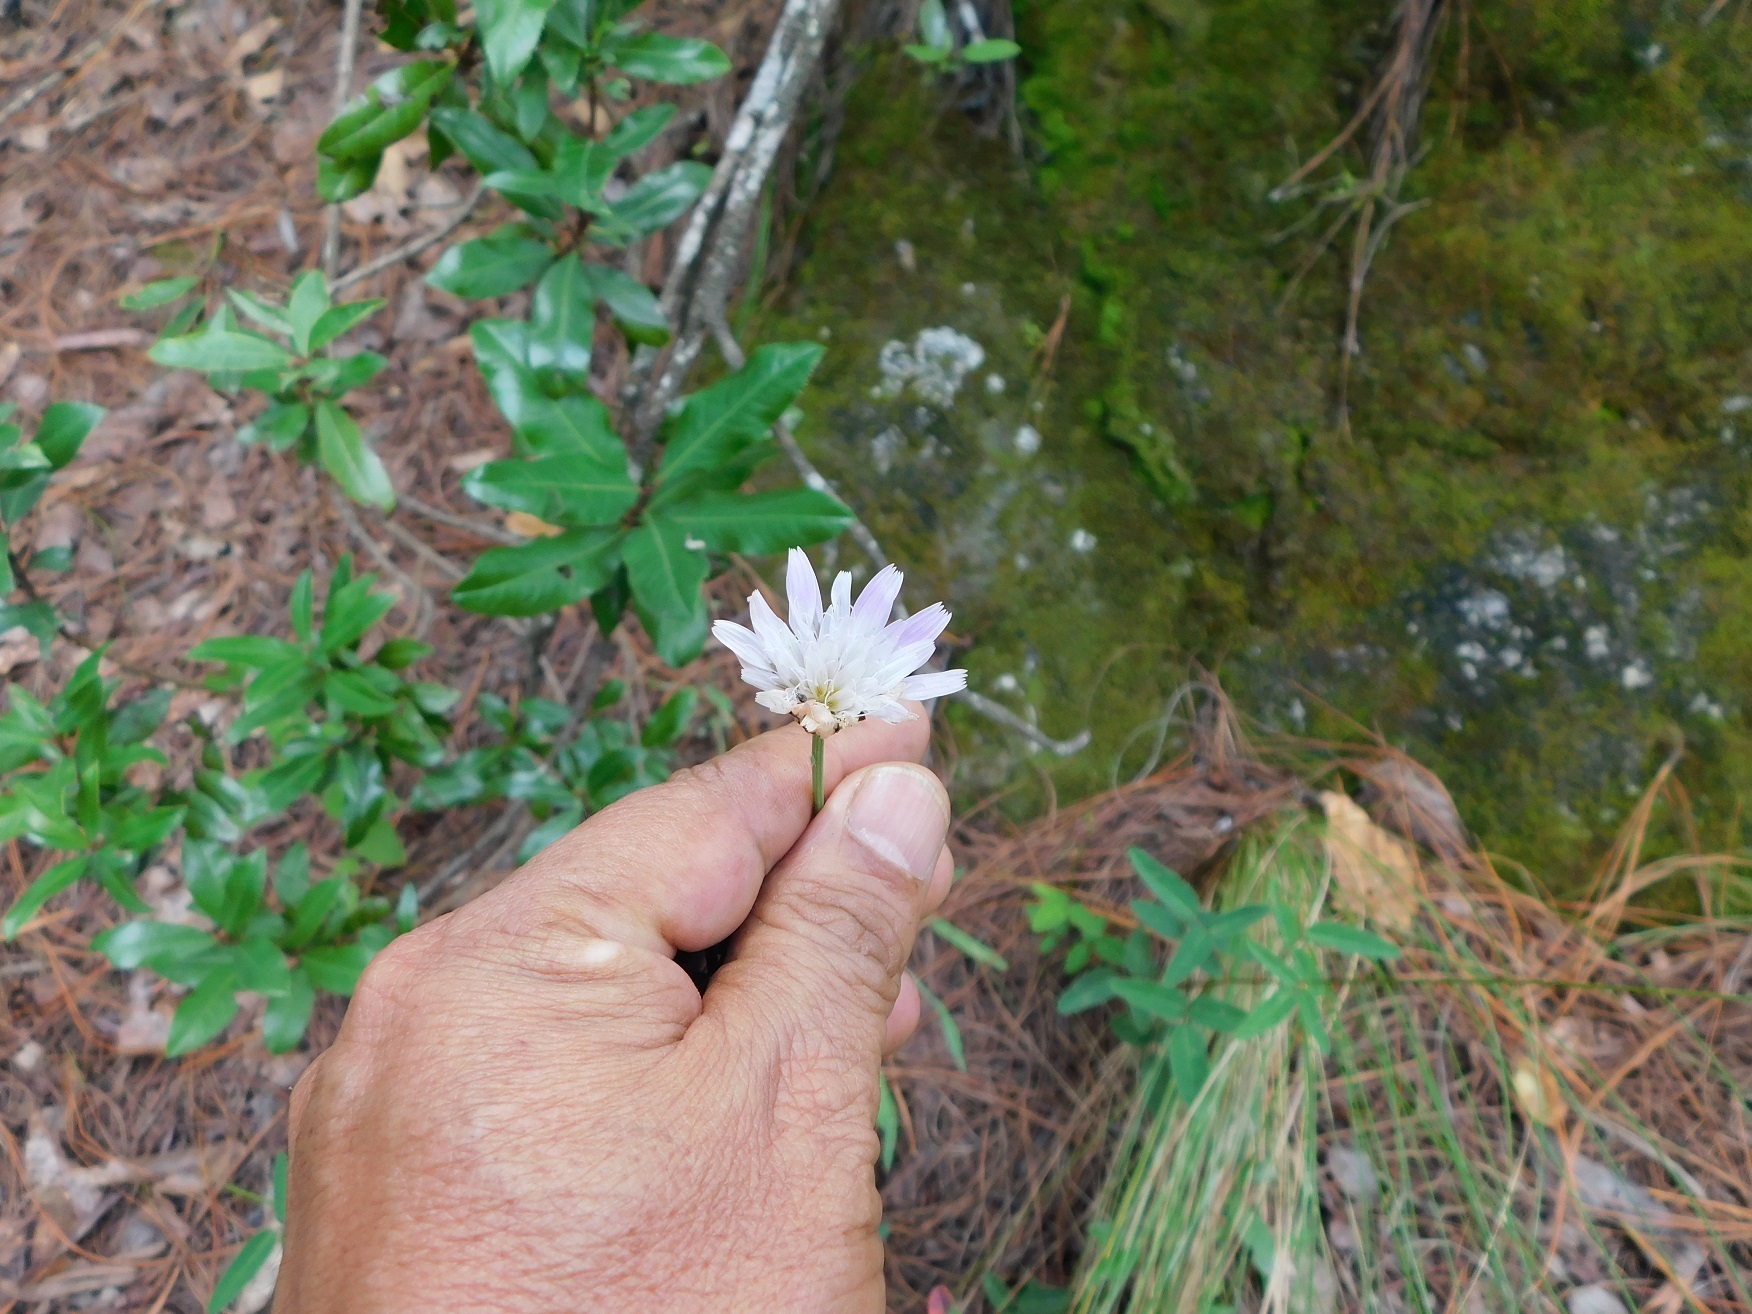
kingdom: Plantae
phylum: Tracheophyta
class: Magnoliopsida
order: Asterales
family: Asteraceae
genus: Pinaropappus
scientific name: Pinaropappus spathulatus
